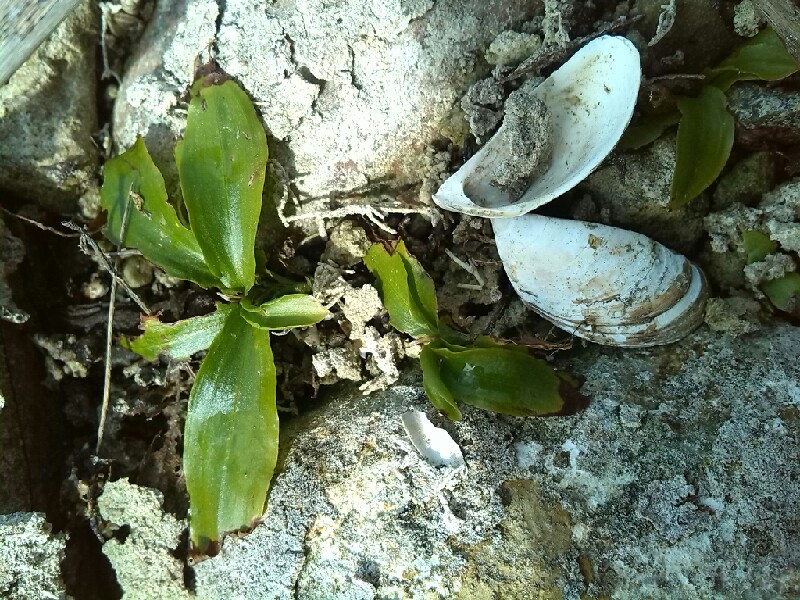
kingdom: Plantae
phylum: Tracheophyta
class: Liliopsida
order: Alismatales
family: Potamogetonaceae
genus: Potamogeton
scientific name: Potamogeton gramineus
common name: Various-leaved pondweed
